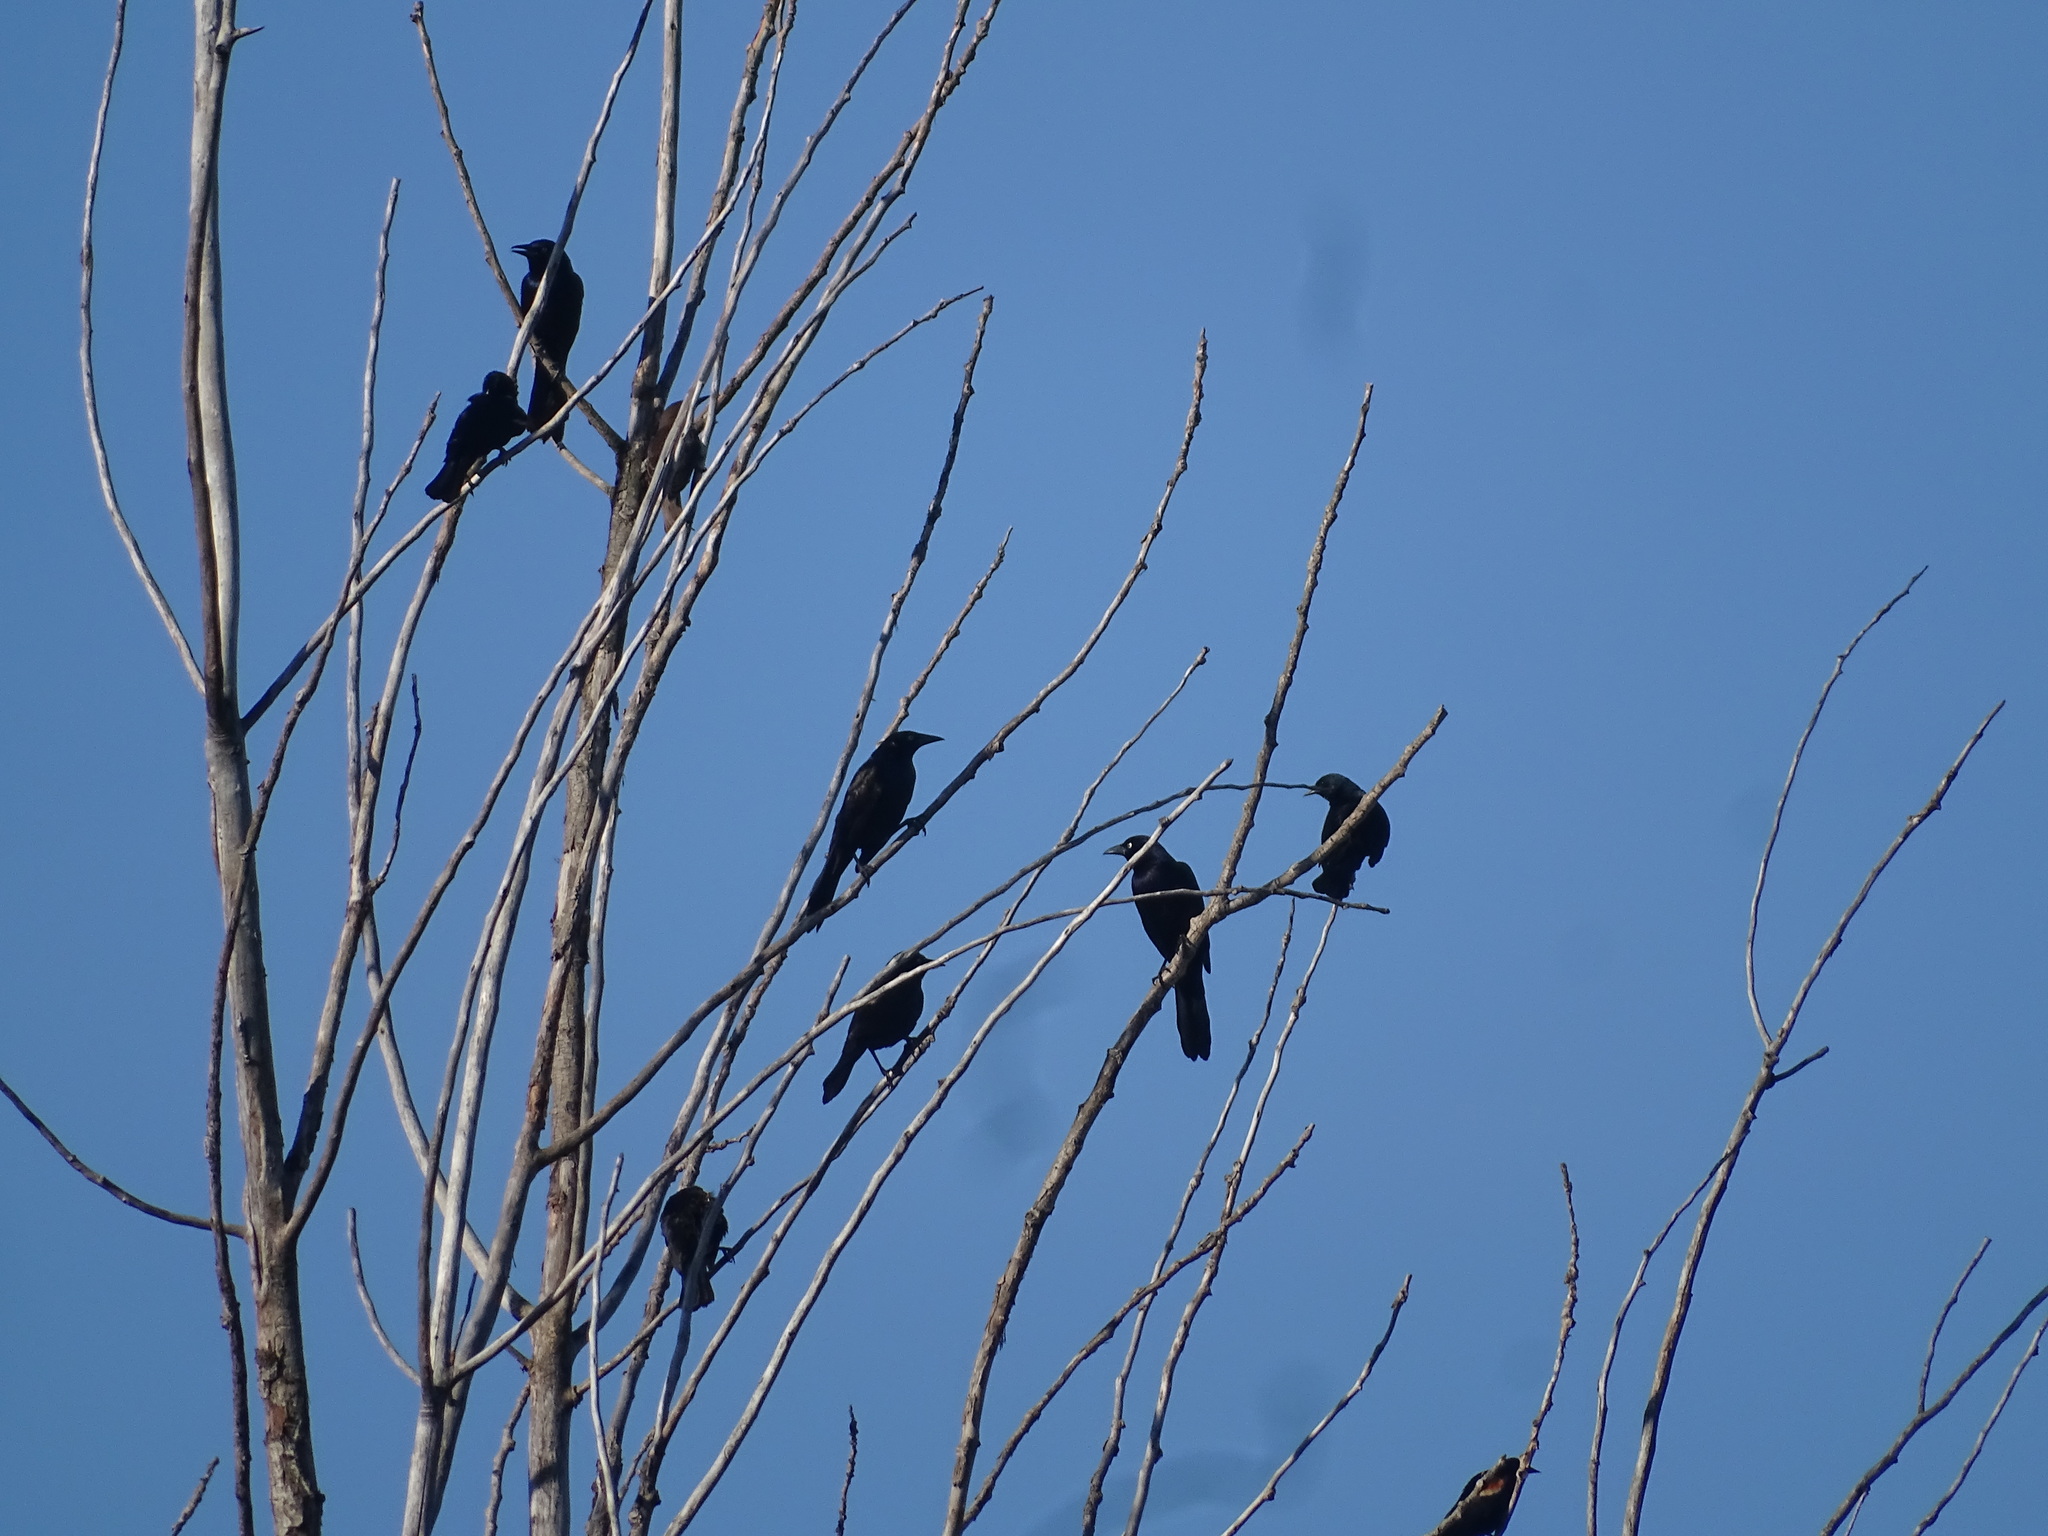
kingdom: Animalia
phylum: Chordata
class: Aves
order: Passeriformes
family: Icteridae
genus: Quiscalus
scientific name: Quiscalus quiscula
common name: Common grackle
